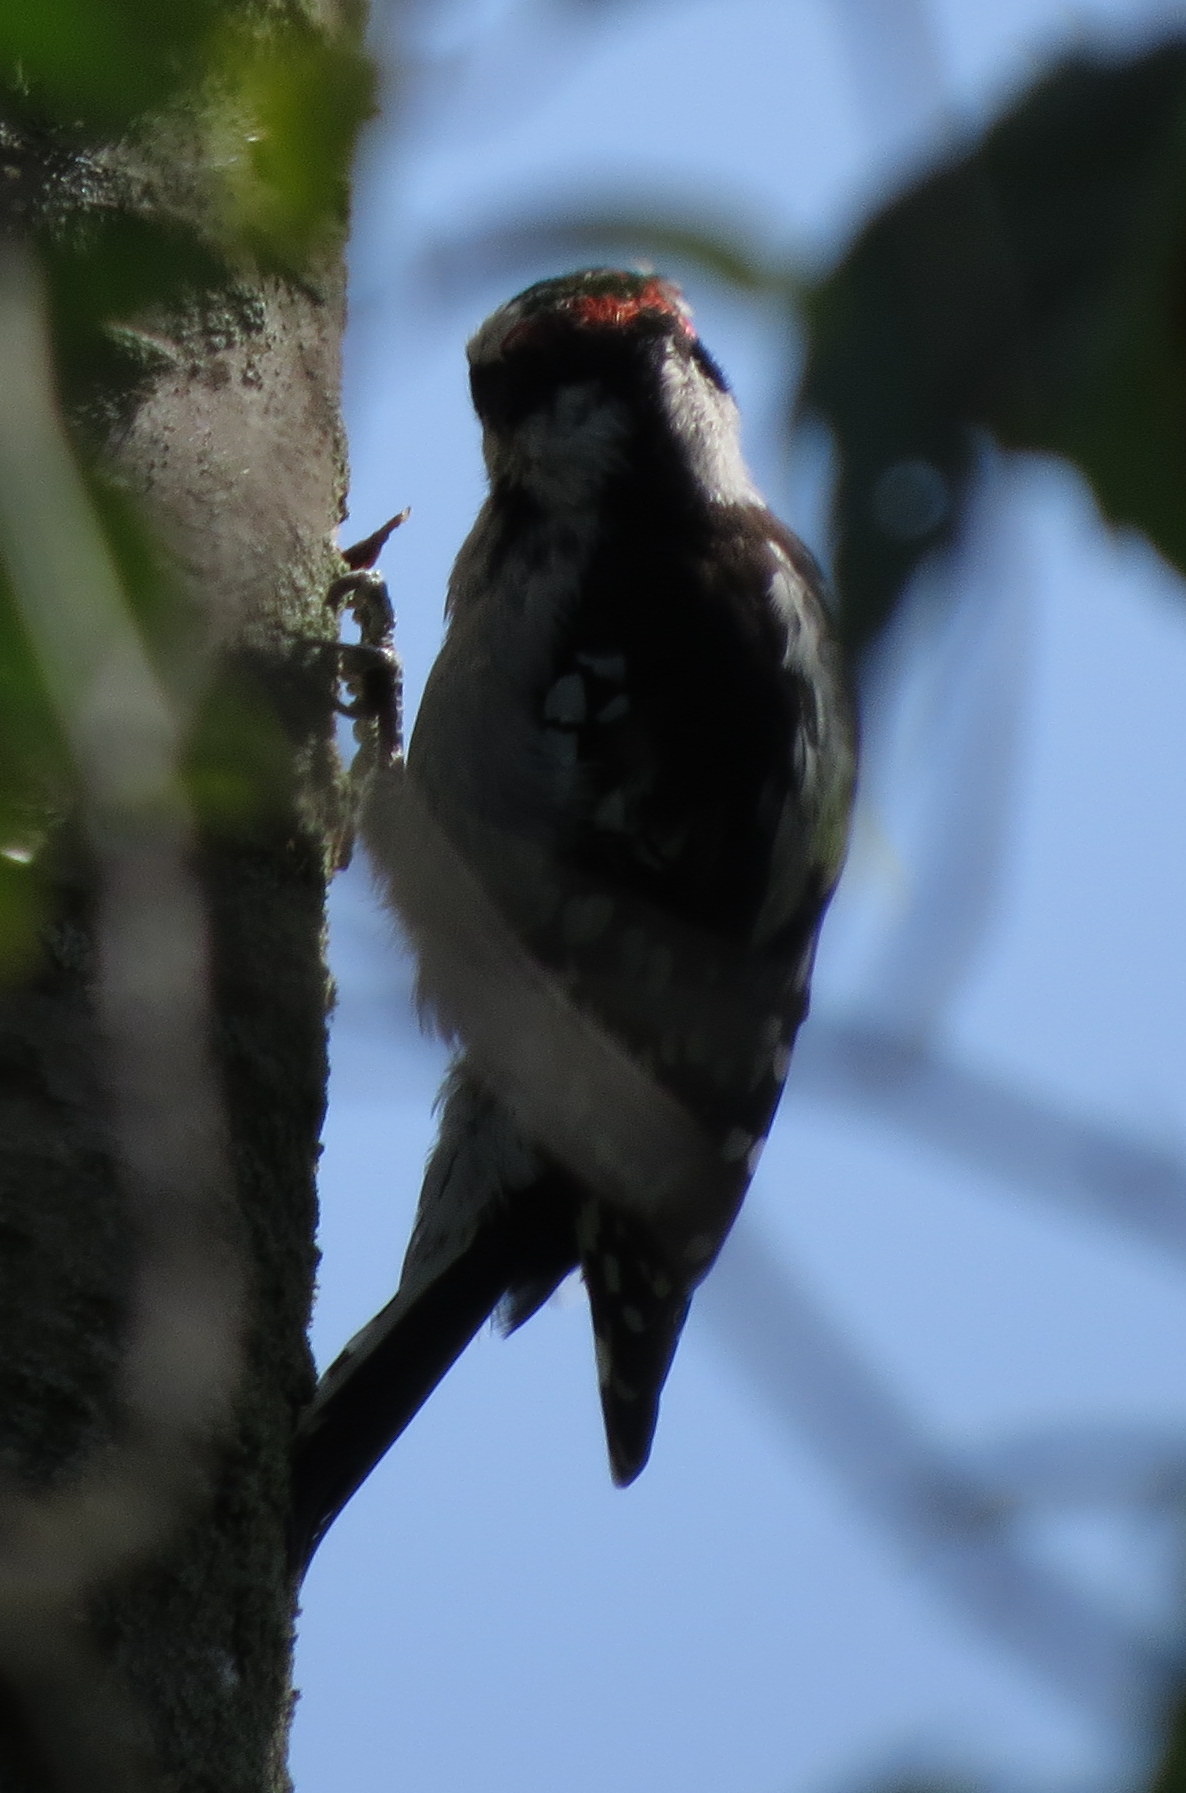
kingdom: Animalia
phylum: Chordata
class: Aves
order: Piciformes
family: Picidae
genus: Dryobates
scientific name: Dryobates pubescens
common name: Downy woodpecker
